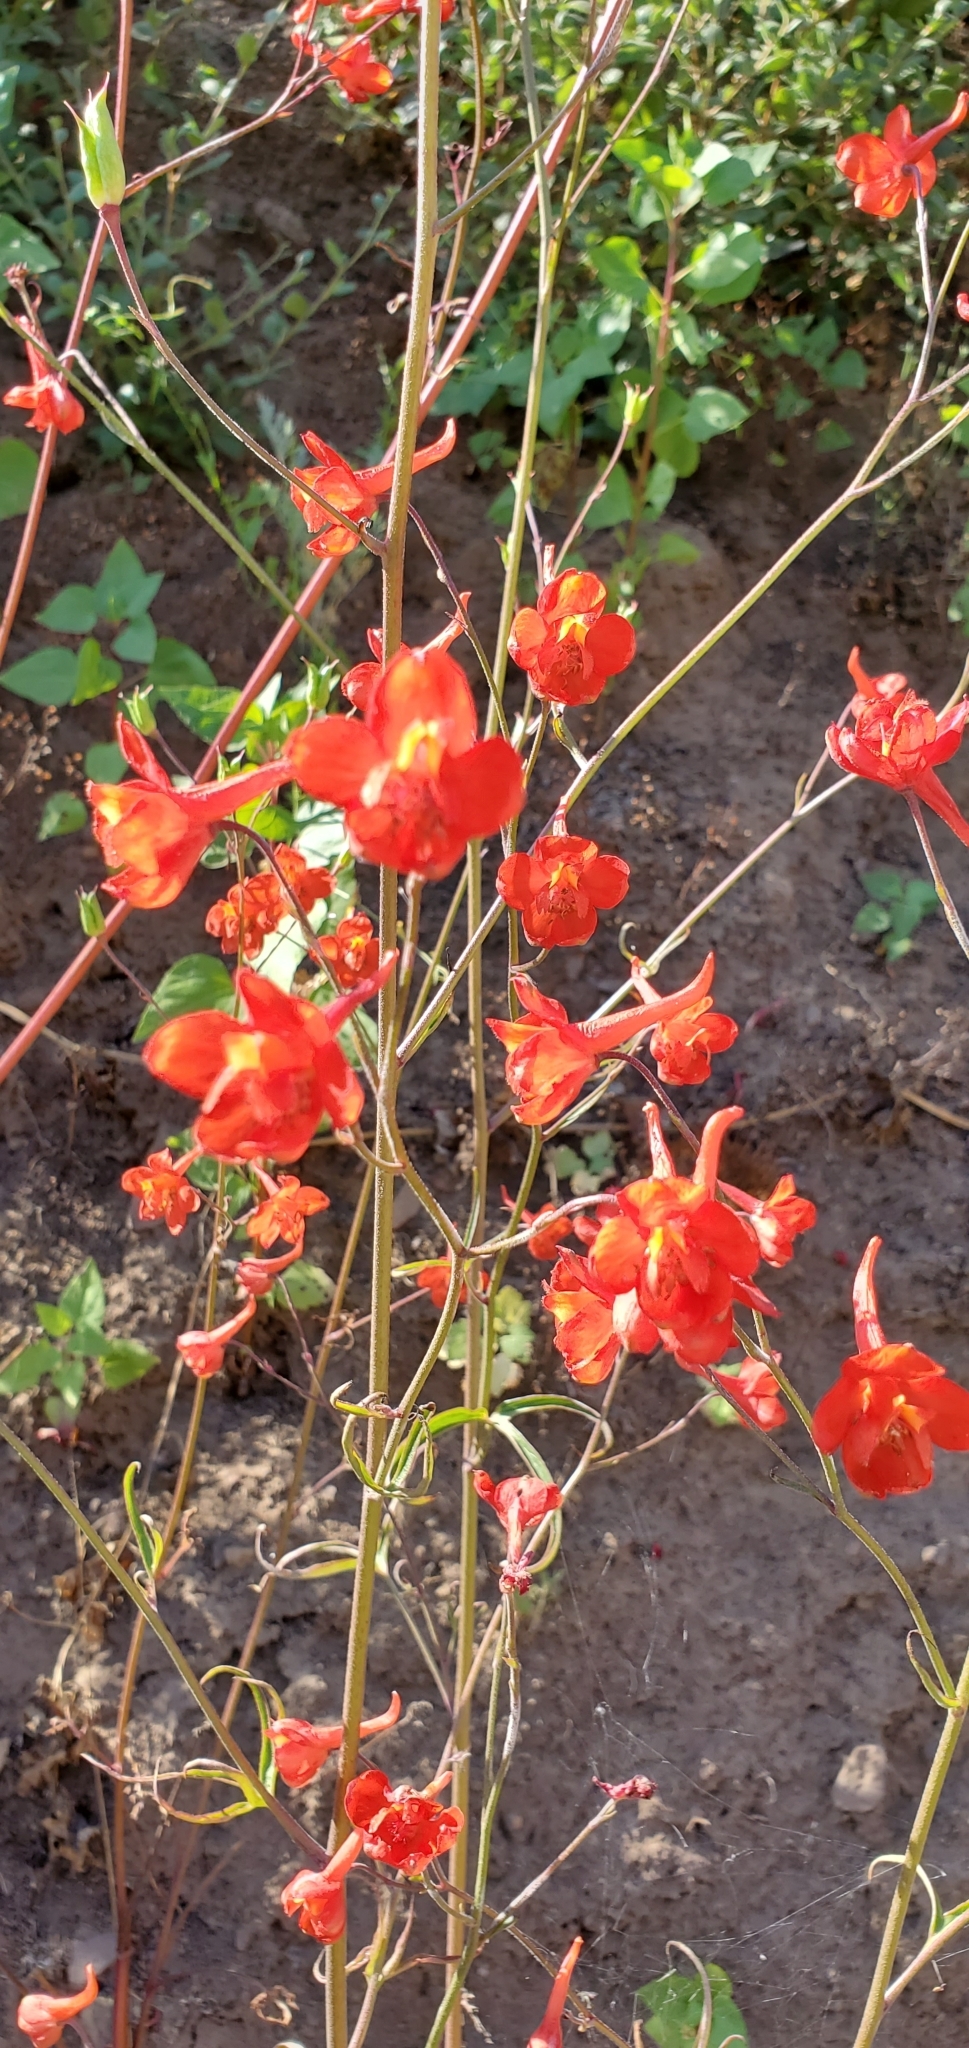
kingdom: Plantae
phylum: Tracheophyta
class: Magnoliopsida
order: Ranunculales
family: Ranunculaceae
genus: Delphinium
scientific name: Delphinium cardinale
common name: Scarlet larkspur
